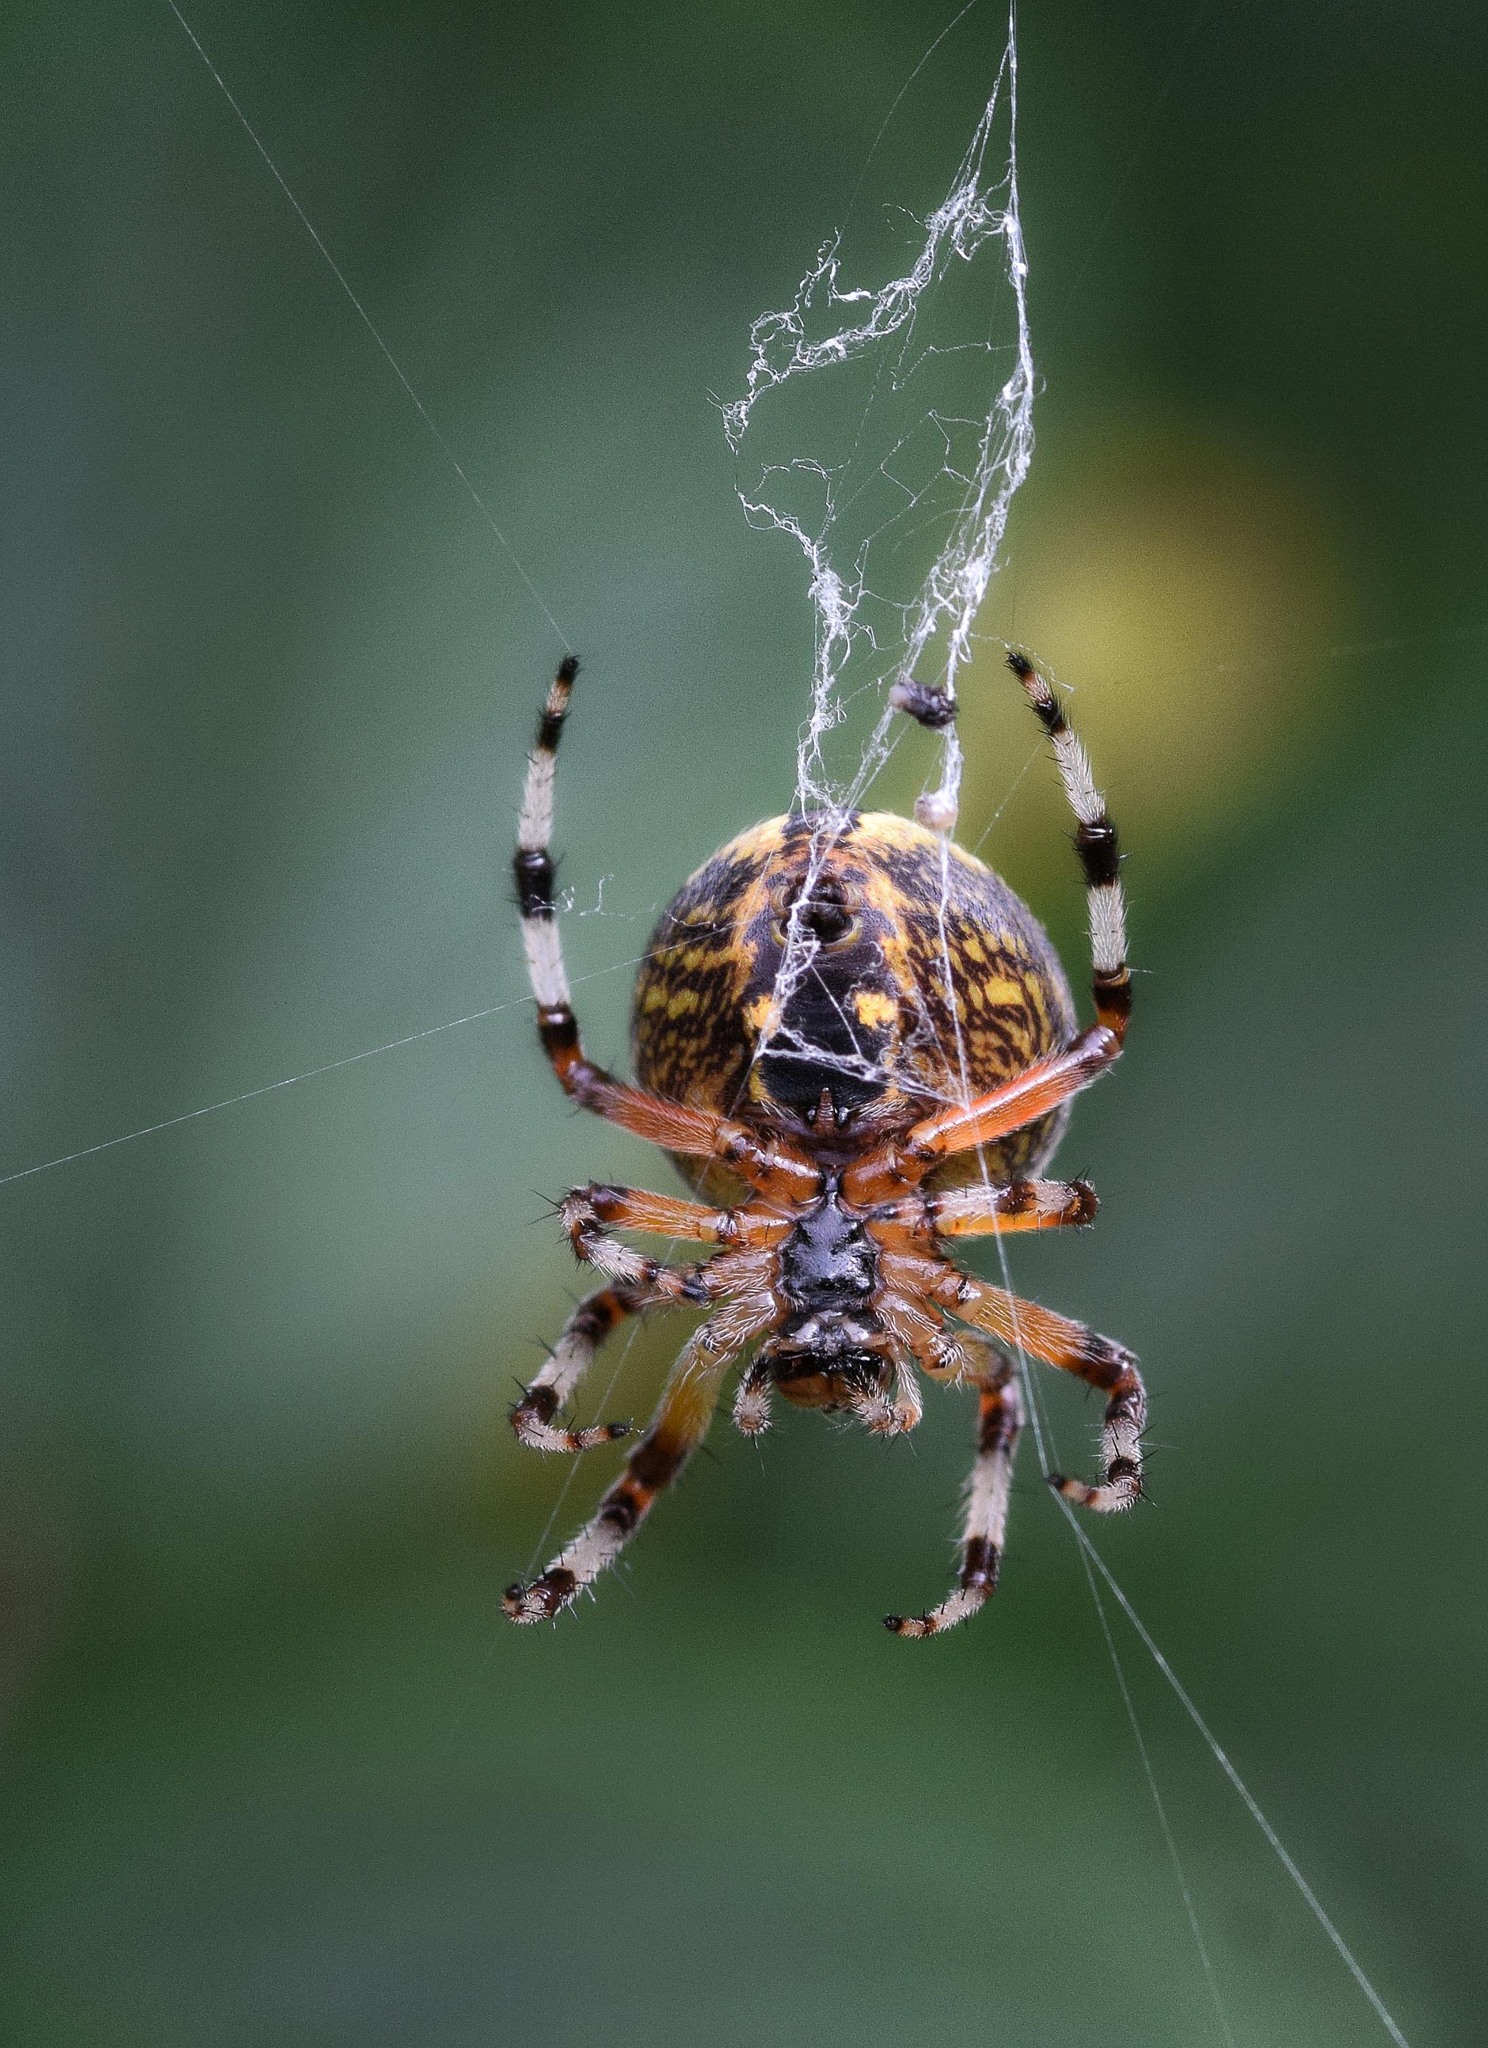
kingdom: Animalia
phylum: Arthropoda
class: Arachnida
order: Araneae
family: Araneidae
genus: Araneus
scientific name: Araneus marmoreus
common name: Marbled orbweaver
